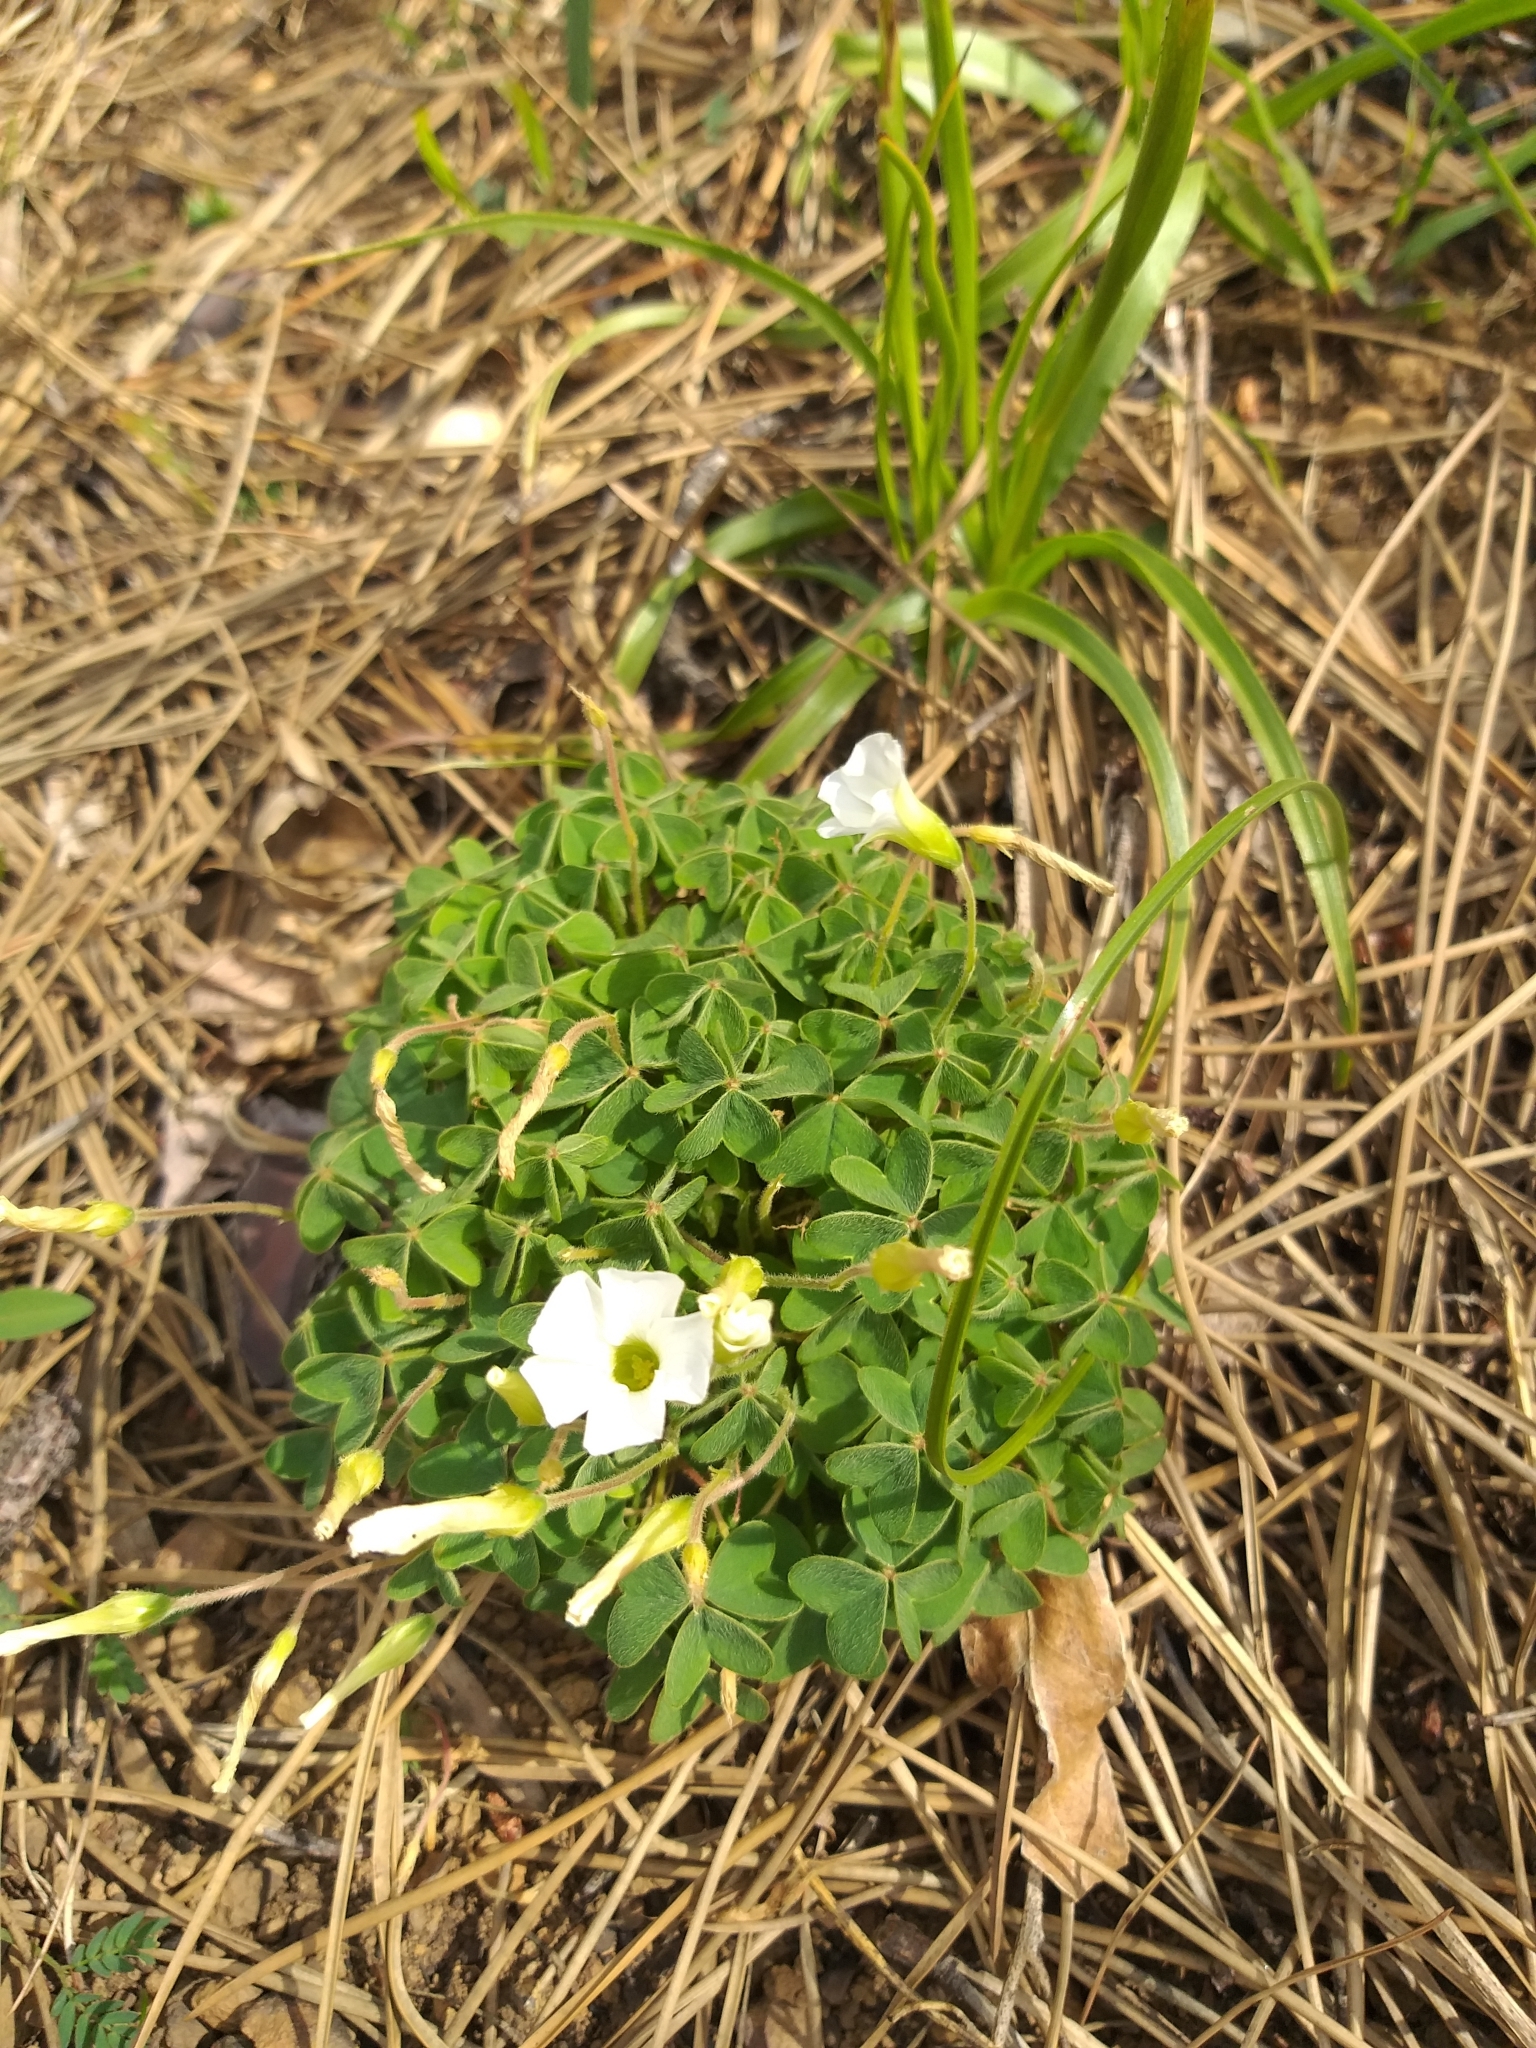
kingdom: Plantae
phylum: Tracheophyta
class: Magnoliopsida
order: Oxalidales
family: Oxalidaceae
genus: Oxalis
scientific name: Oxalis lanata
